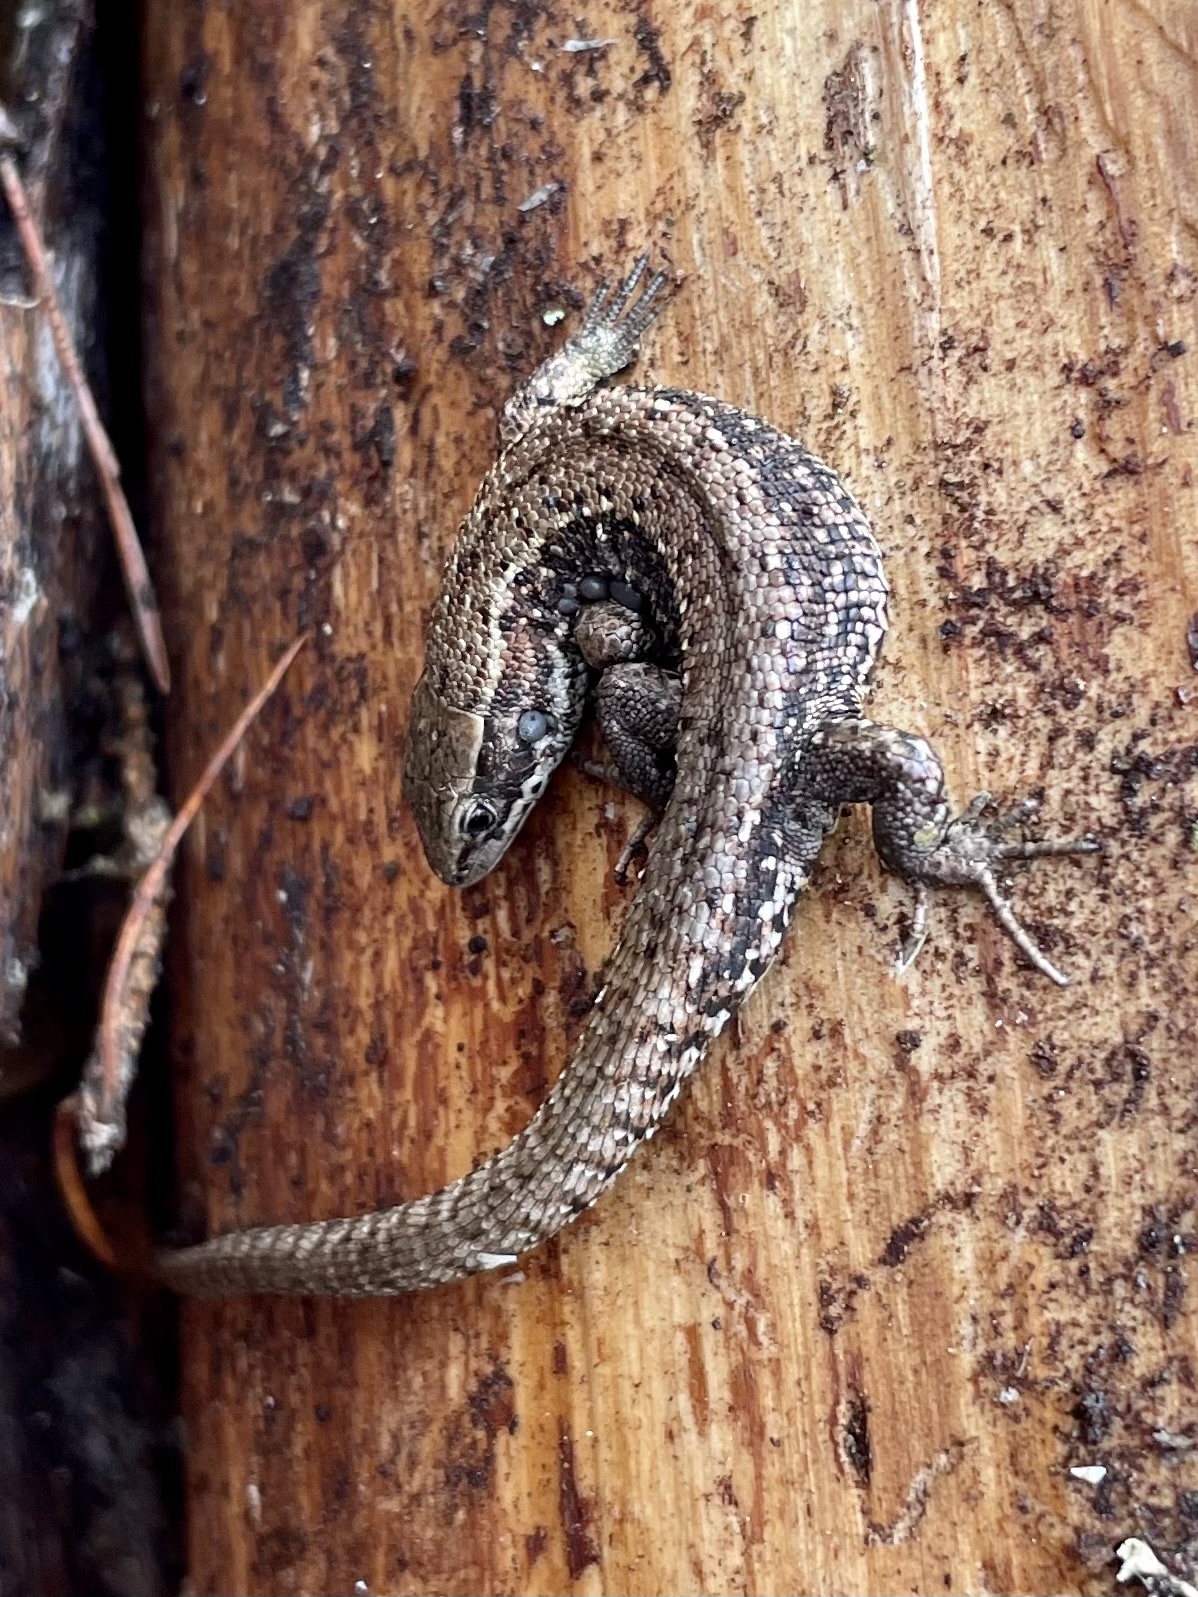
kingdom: Animalia
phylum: Chordata
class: Squamata
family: Lacertidae
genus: Zootoca
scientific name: Zootoca vivipara
